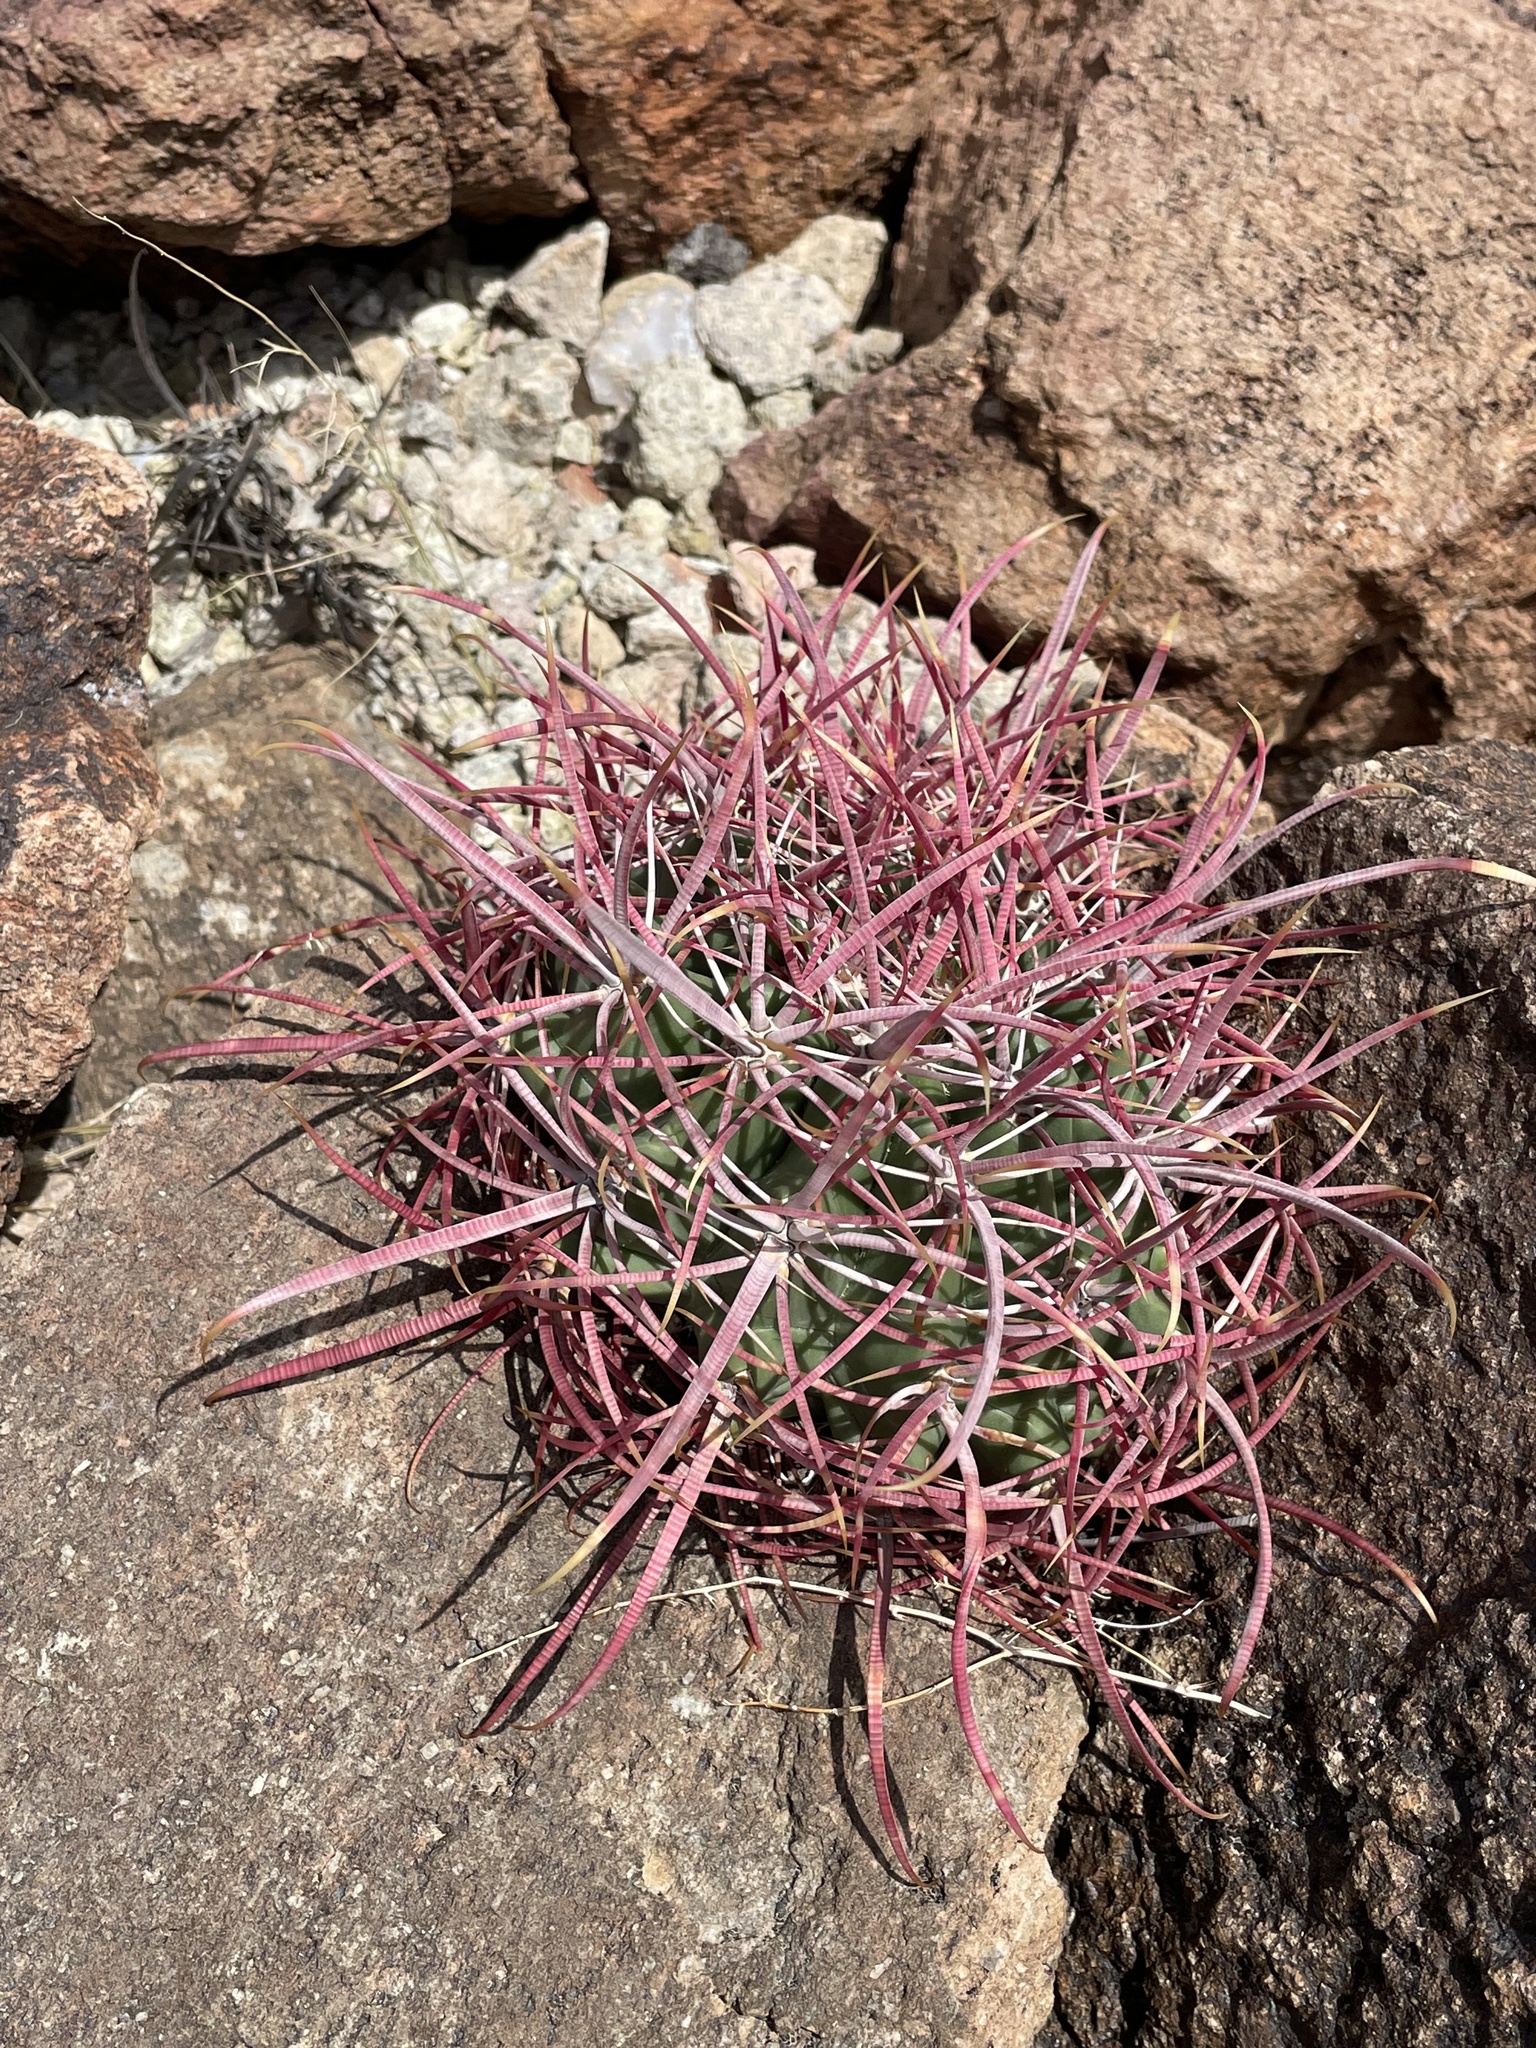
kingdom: Plantae
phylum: Tracheophyta
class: Magnoliopsida
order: Caryophyllales
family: Cactaceae
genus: Ferocactus
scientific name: Ferocactus cylindraceus
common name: California barrel cactus
